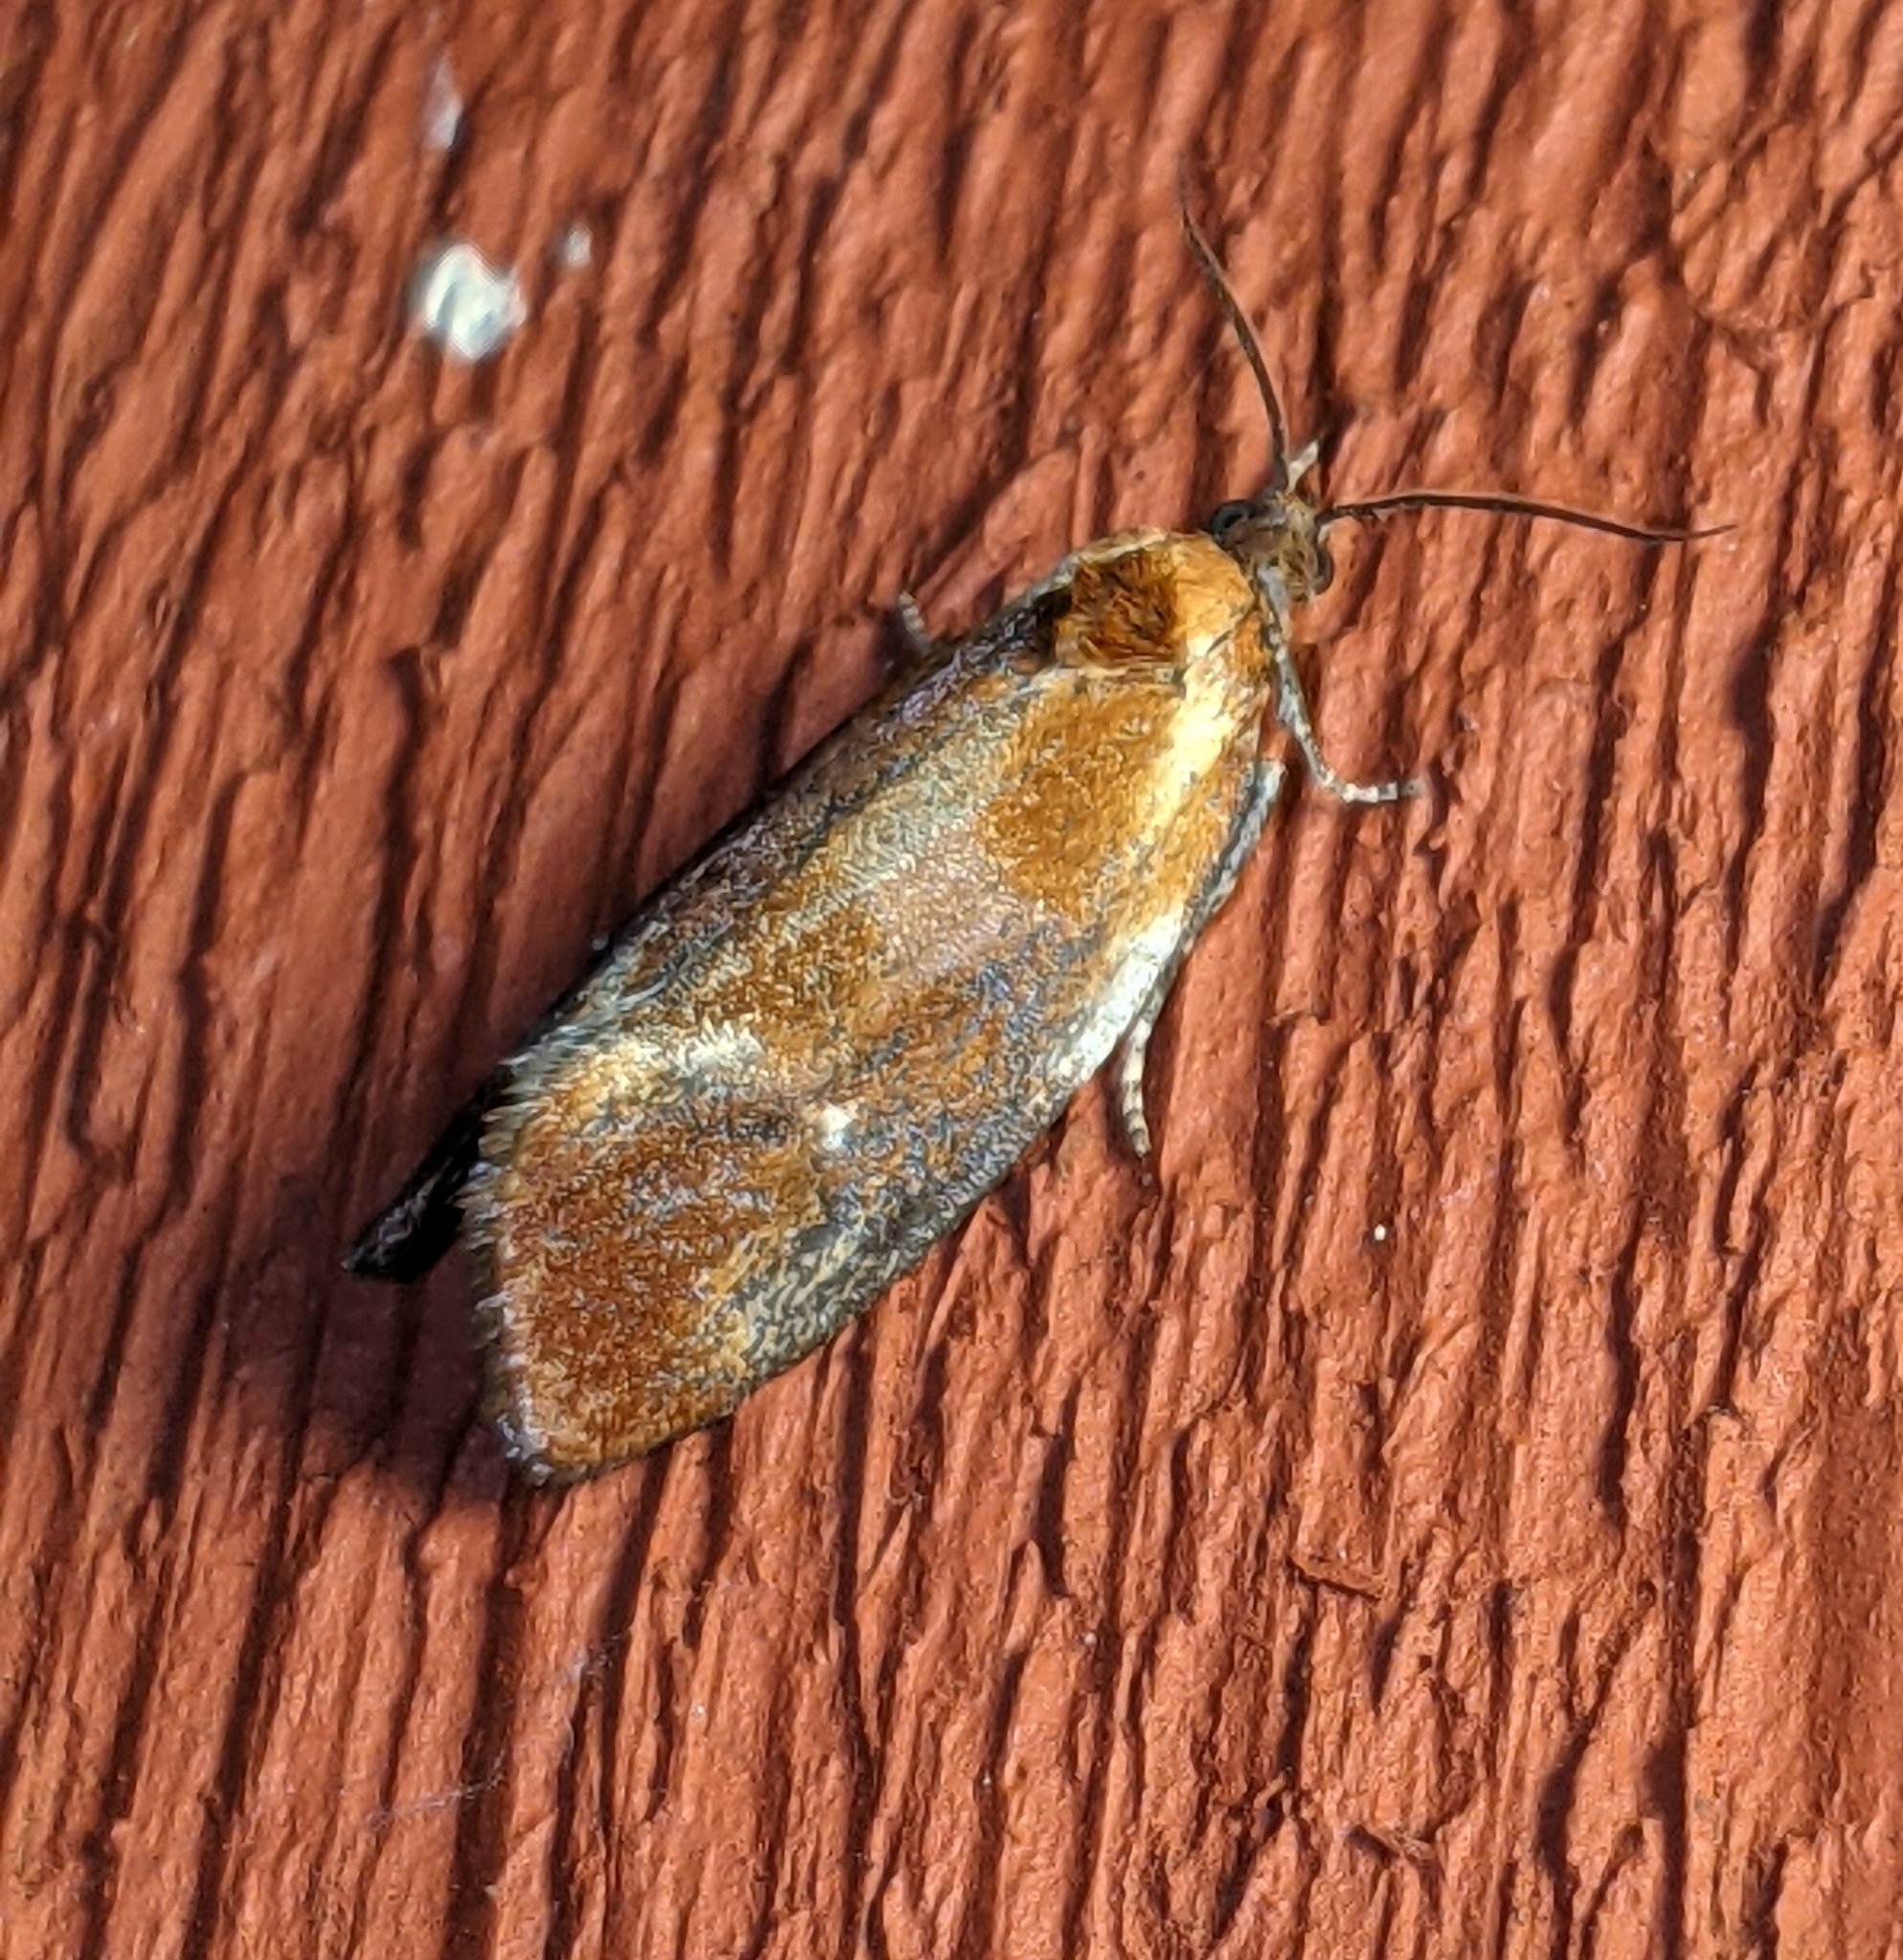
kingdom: Animalia
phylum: Arthropoda
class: Insecta
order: Lepidoptera
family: Tortricidae
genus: Eulia
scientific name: Eulia ministrana
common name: Brassy twist
